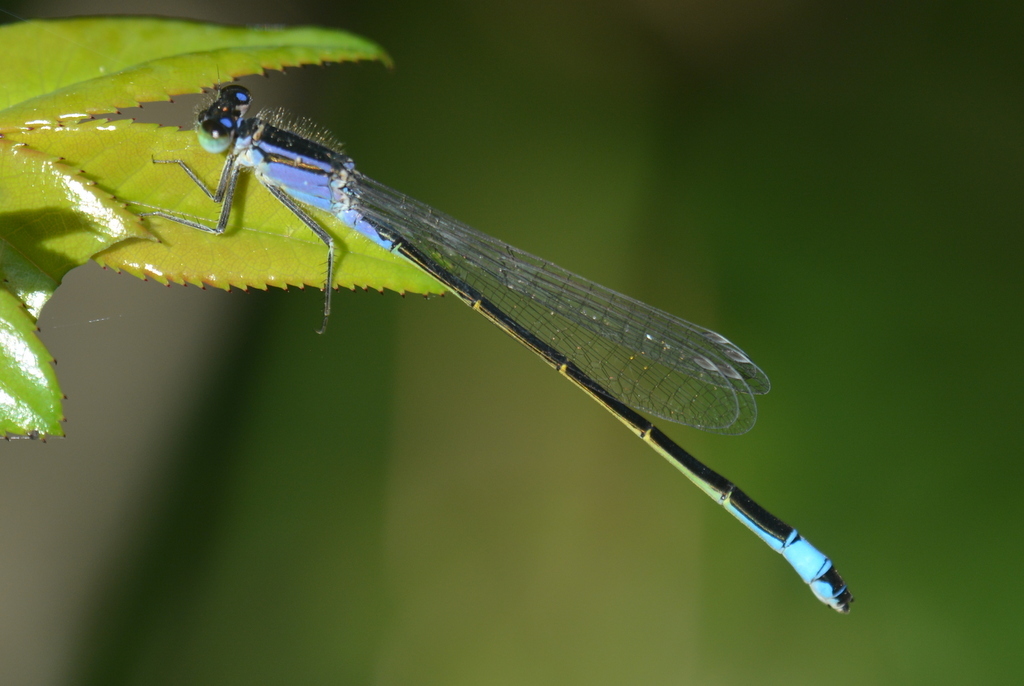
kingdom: Animalia
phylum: Arthropoda
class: Insecta
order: Odonata
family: Coenagrionidae
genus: Ischnura
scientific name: Ischnura elegans
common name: Blue-tailed damselfly
